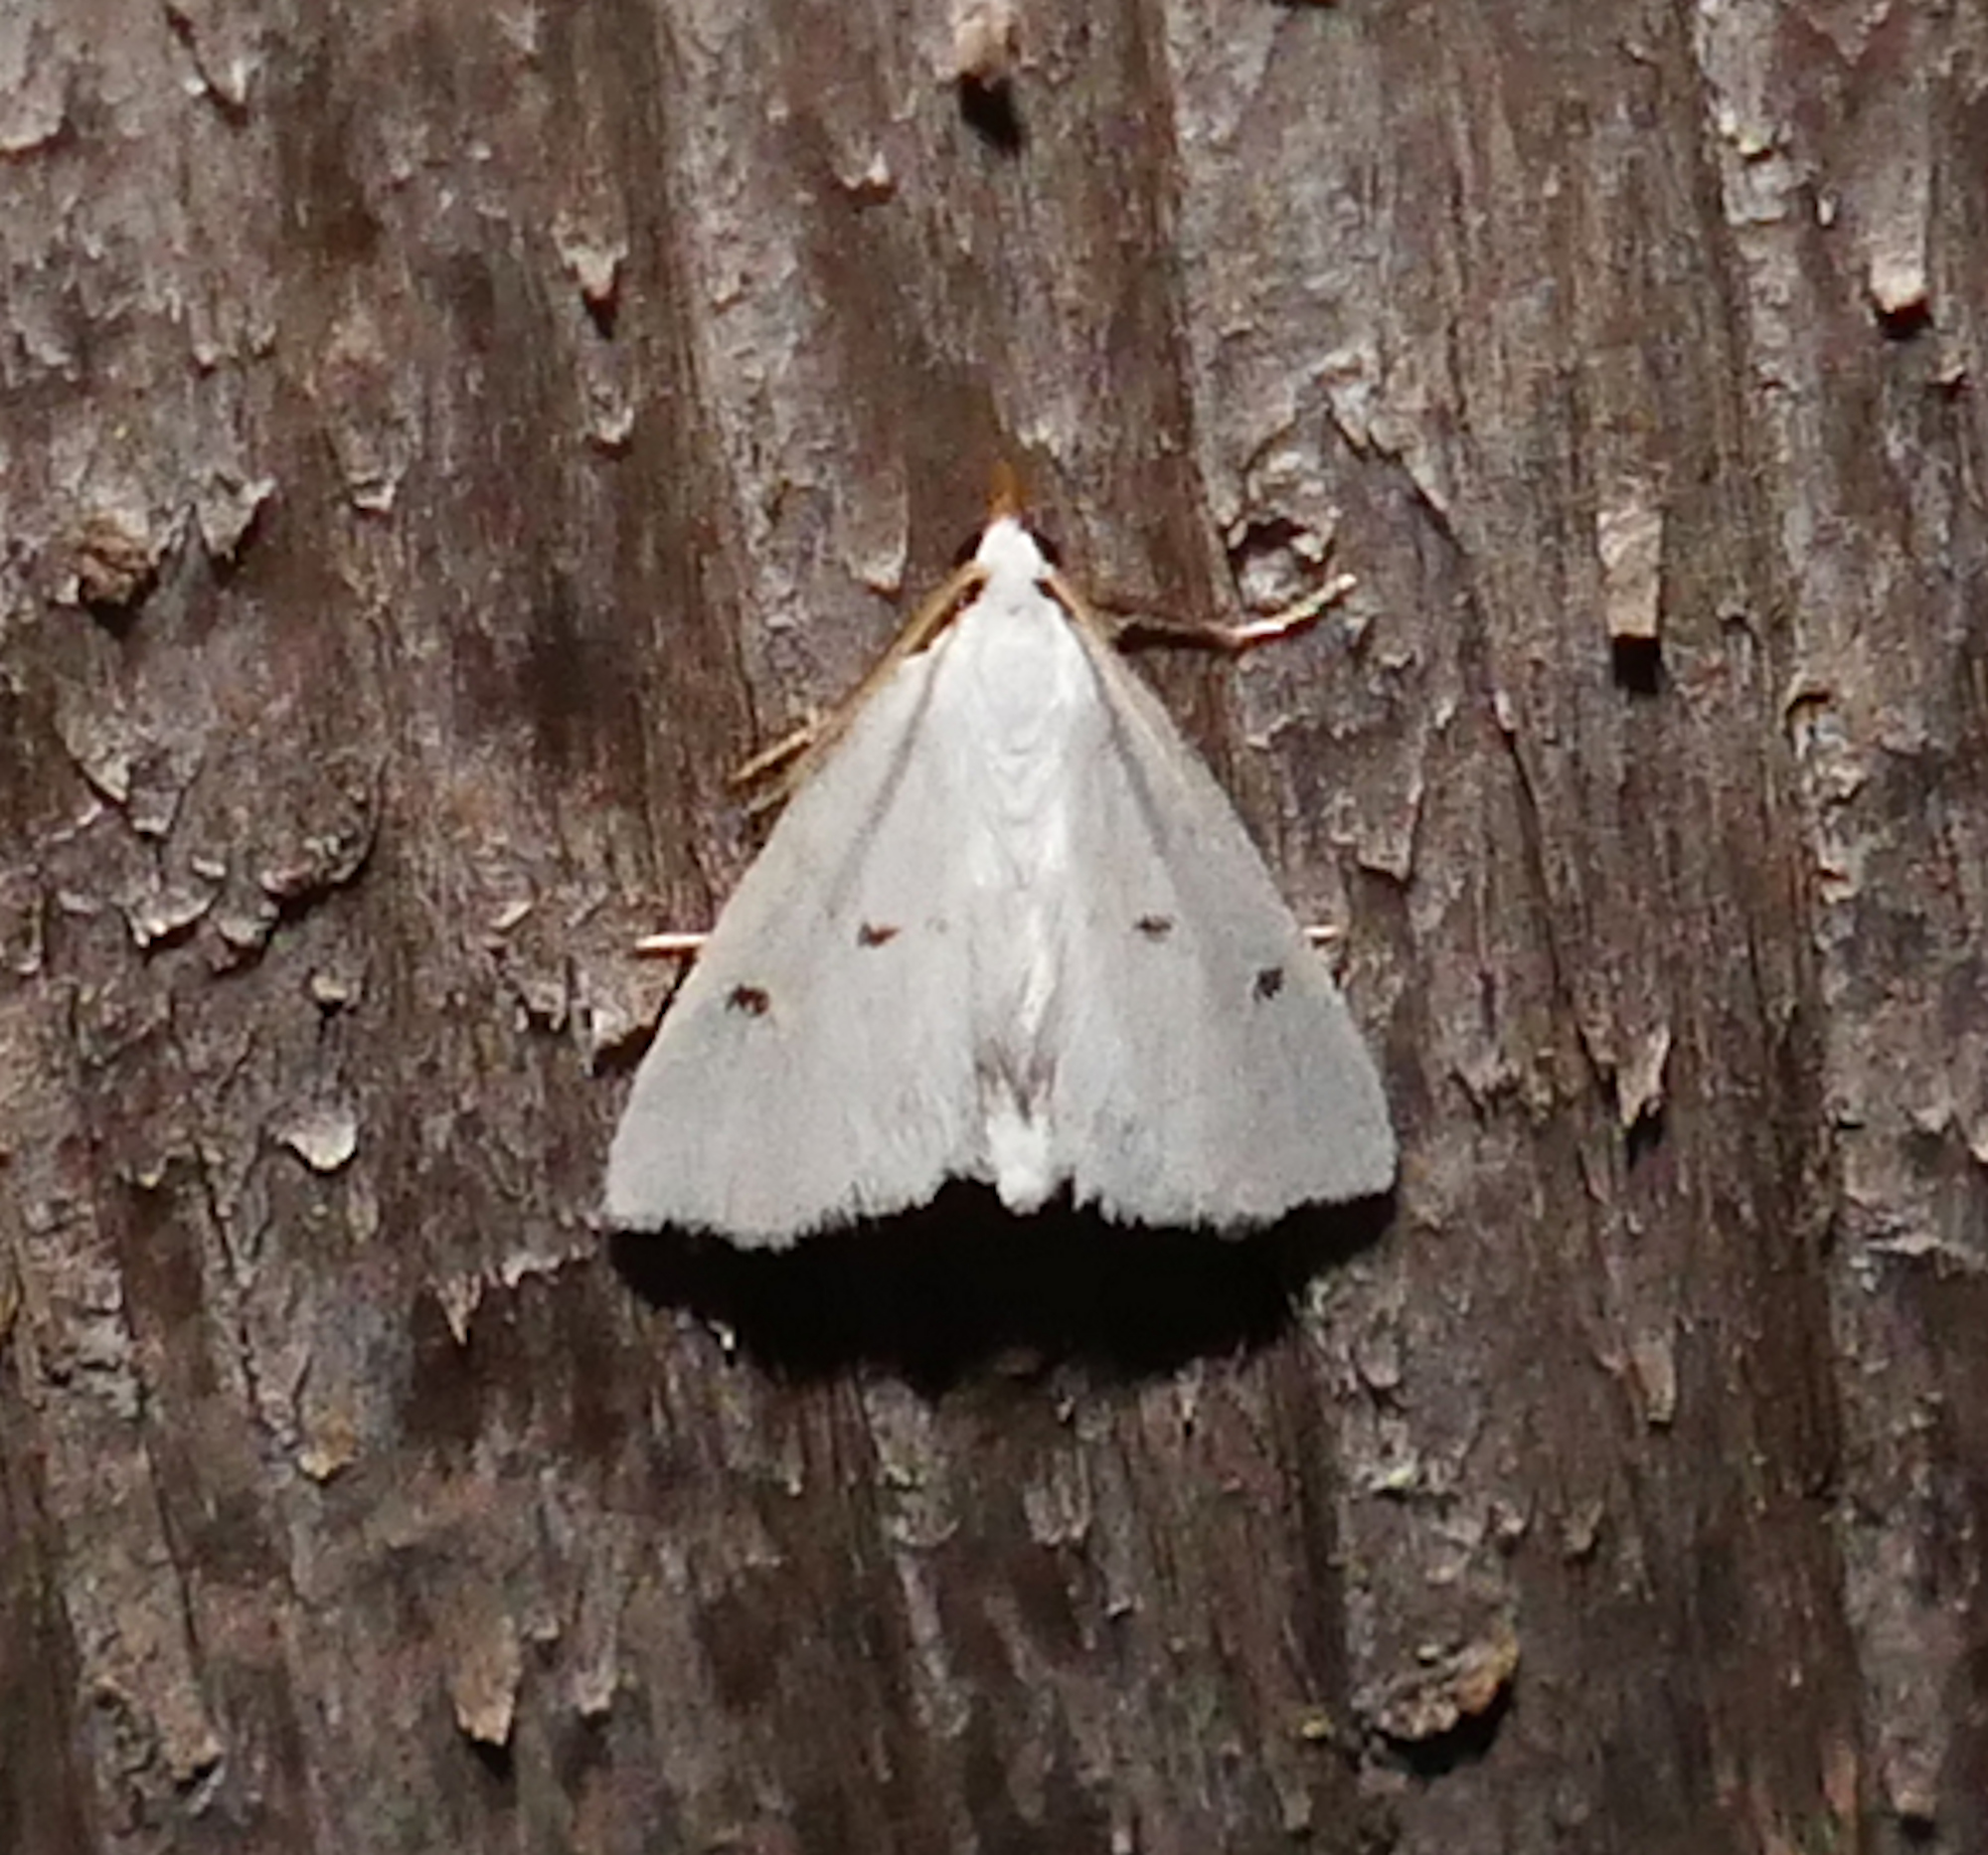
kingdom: Animalia
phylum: Arthropoda
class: Insecta
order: Lepidoptera
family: Crambidae
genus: Leptosteges
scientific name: Leptosteges vestaliella
